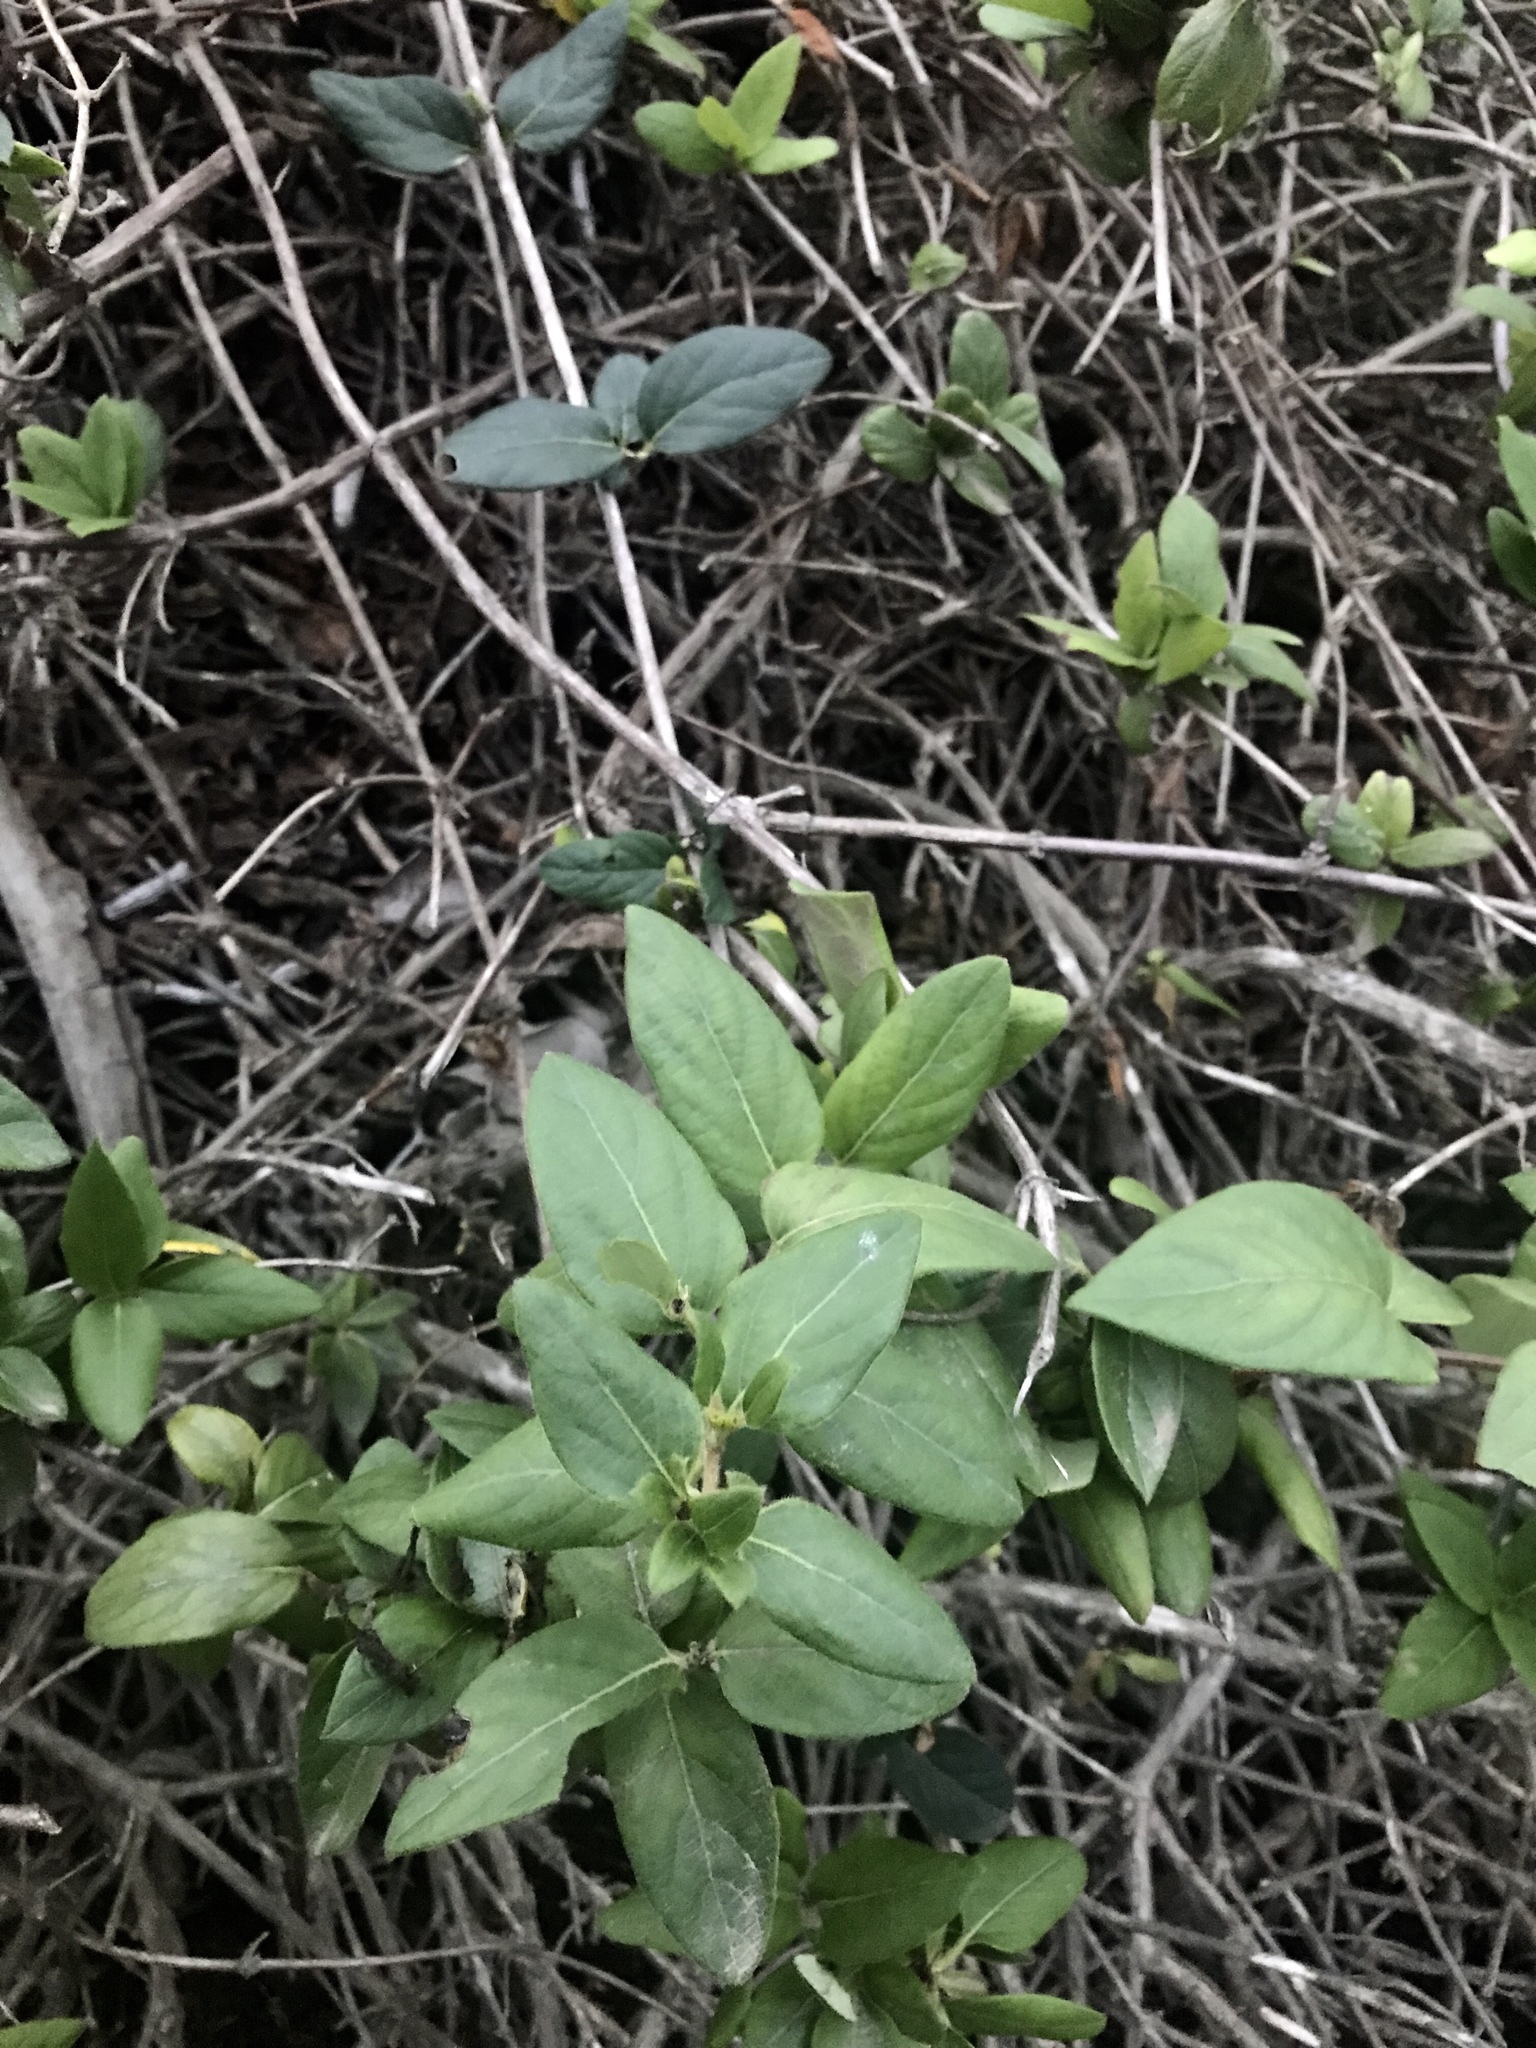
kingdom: Plantae
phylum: Tracheophyta
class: Magnoliopsida
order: Dipsacales
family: Caprifoliaceae
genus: Lonicera
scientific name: Lonicera japonica
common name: Japanese honeysuckle
